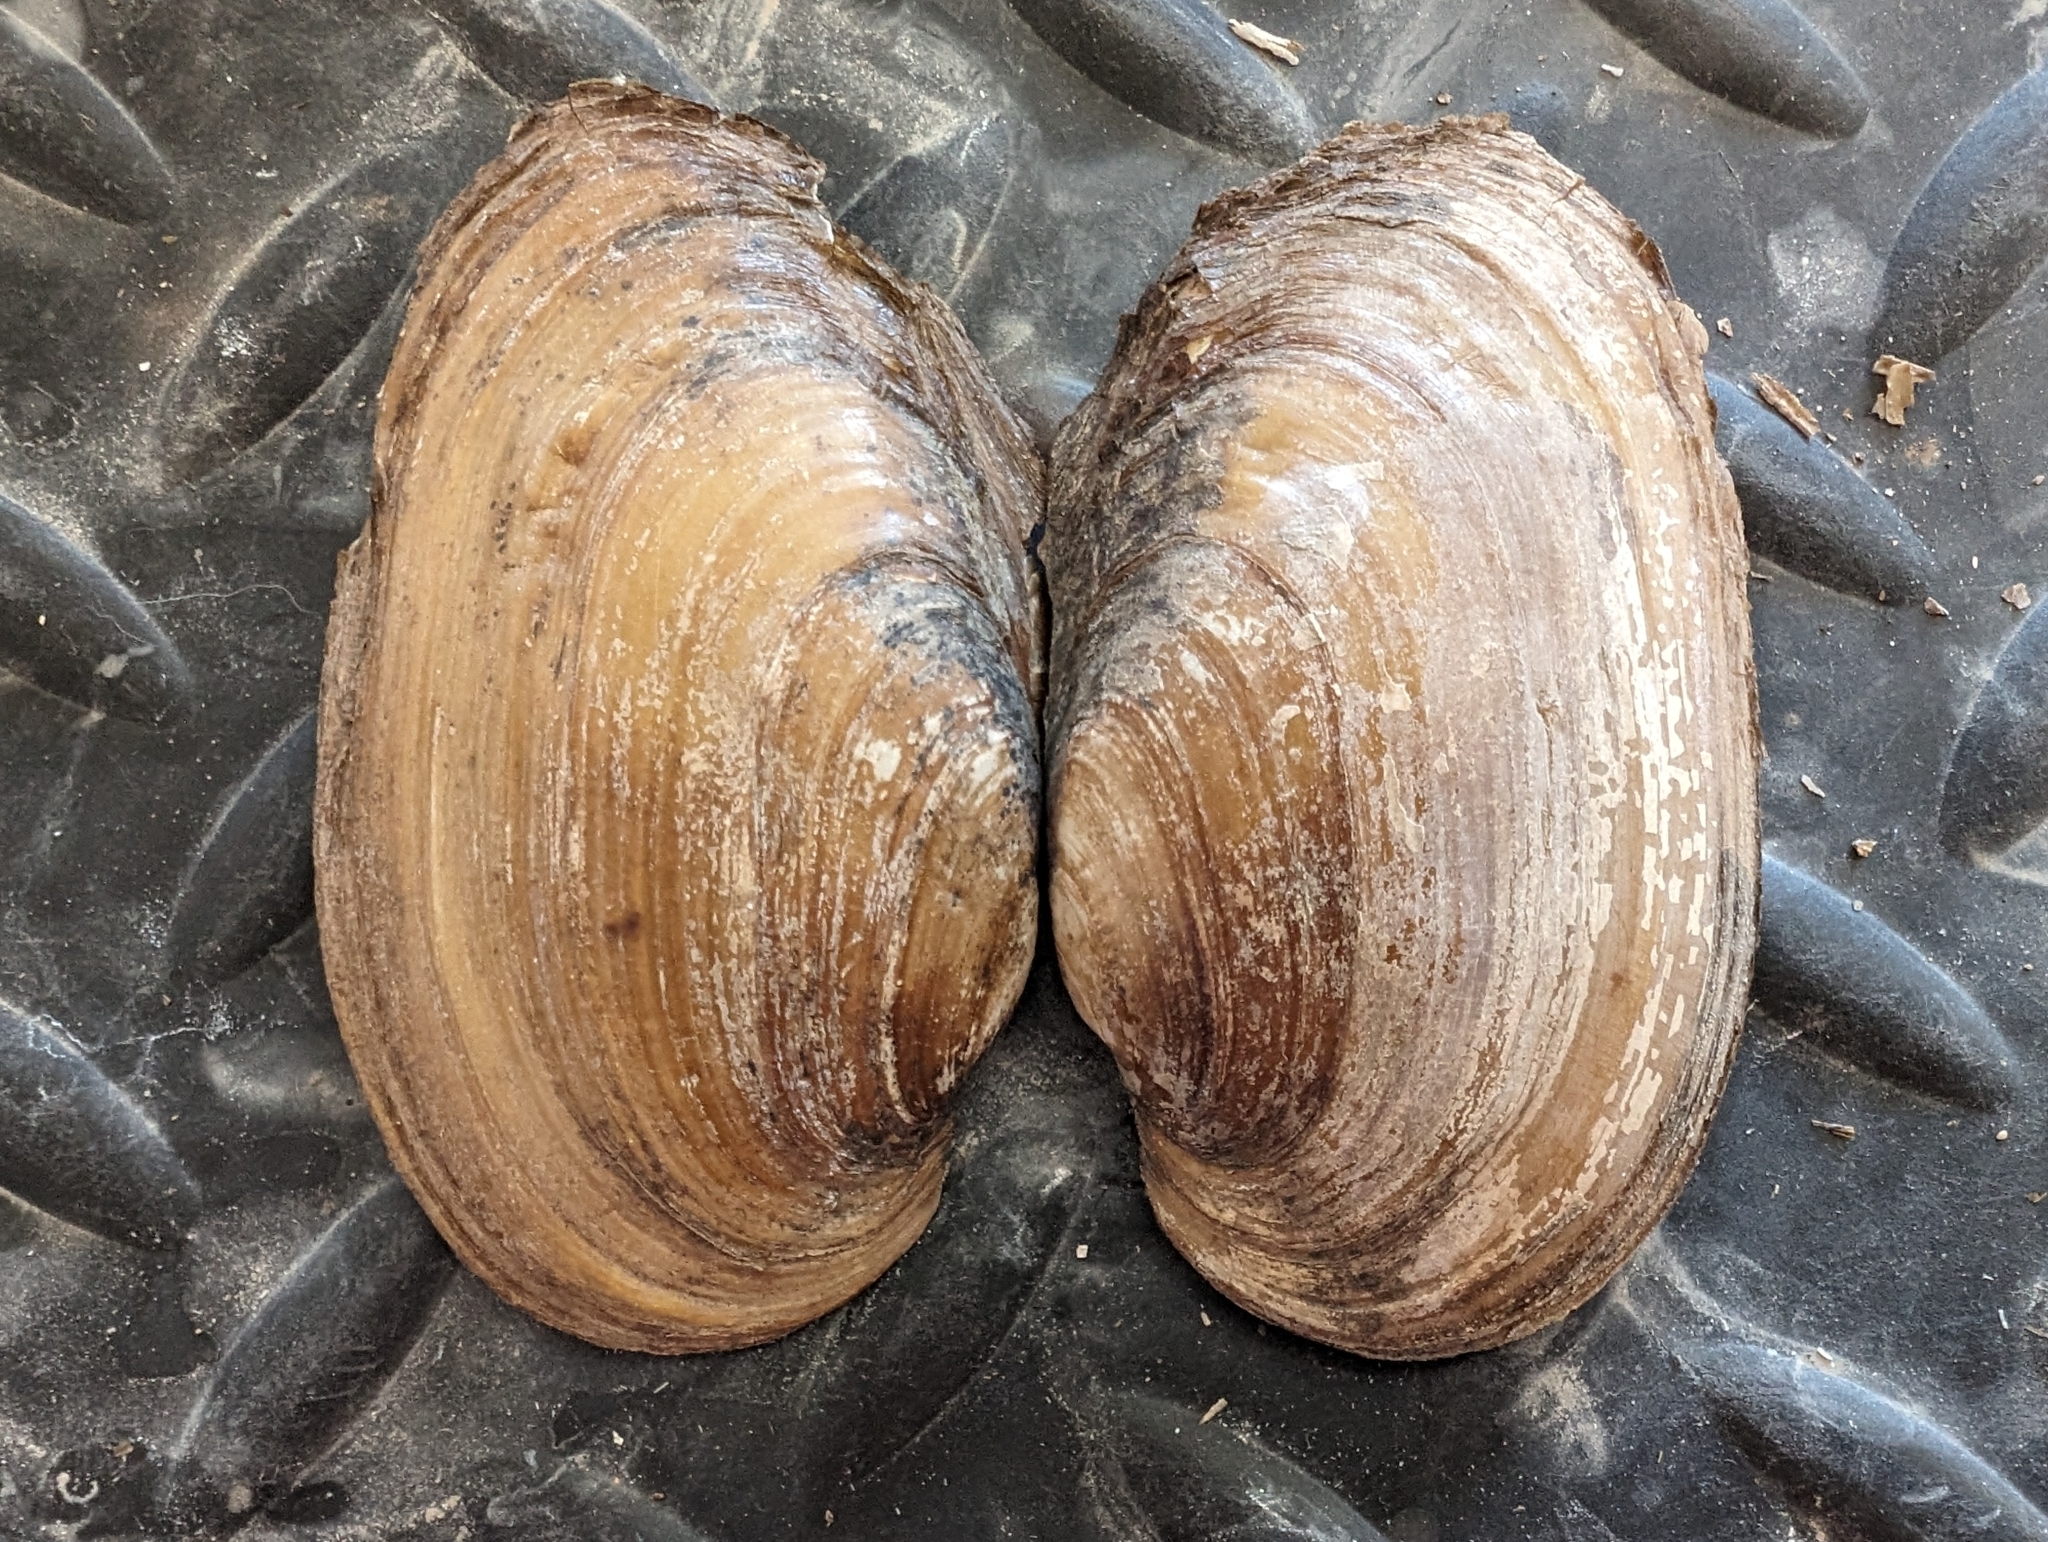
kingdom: Animalia
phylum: Mollusca
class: Bivalvia
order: Unionida
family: Unionidae
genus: Potamilus
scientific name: Potamilus fragilis
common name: Fragile papershell
